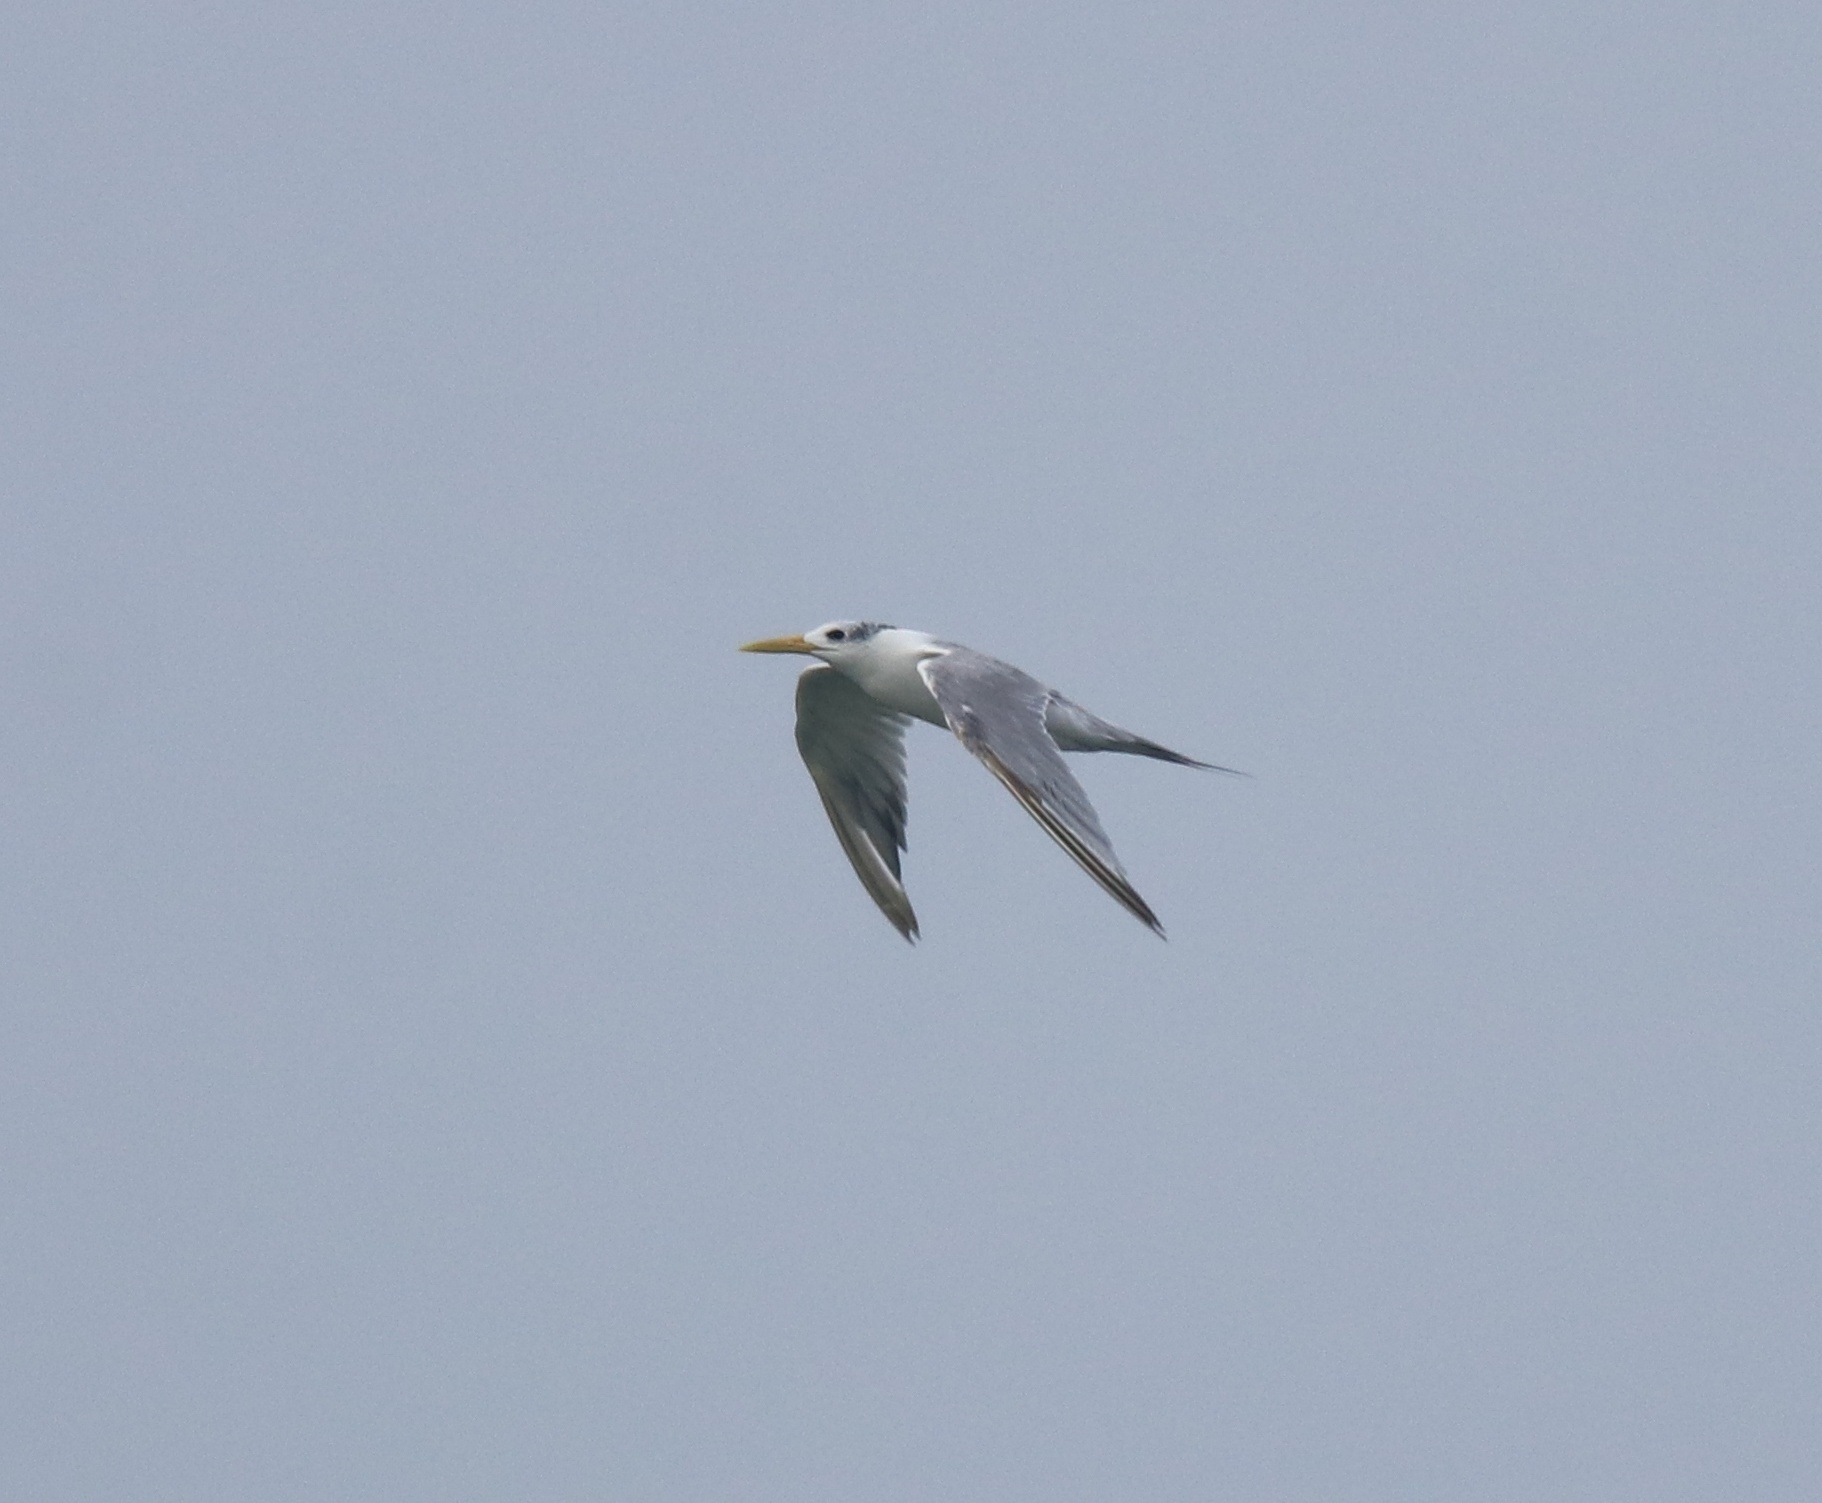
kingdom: Animalia
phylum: Chordata
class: Aves
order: Charadriiformes
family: Laridae
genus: Thalasseus
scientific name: Thalasseus bengalensis
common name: Lesser crested tern
